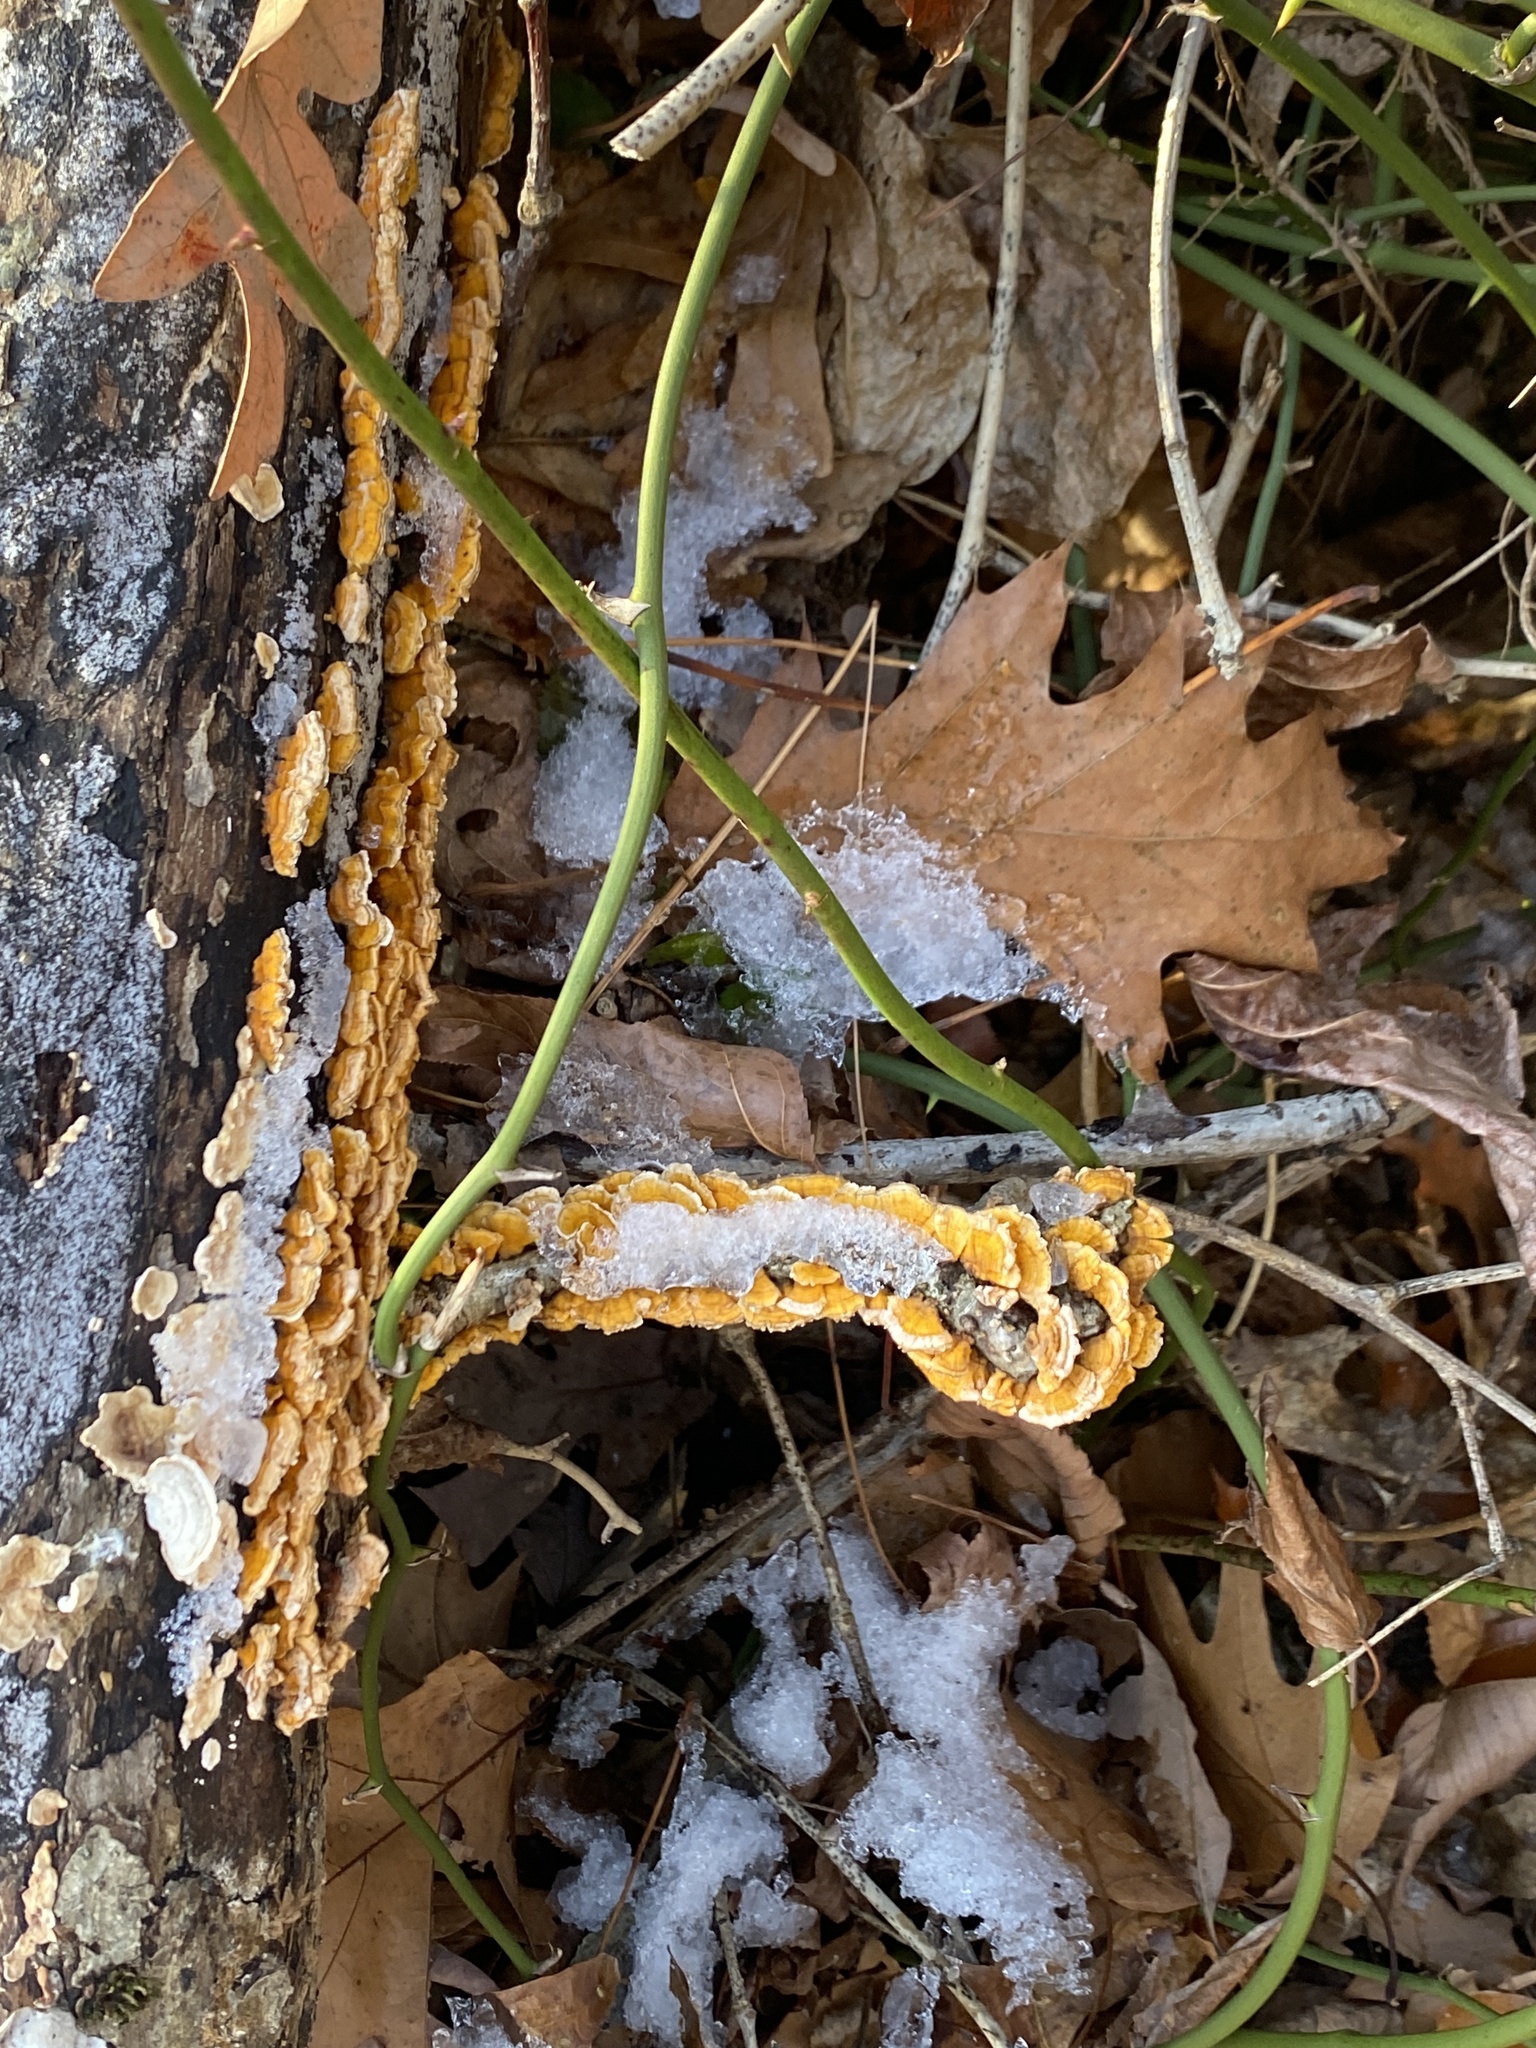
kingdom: Fungi
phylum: Basidiomycota
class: Agaricomycetes
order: Russulales
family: Stereaceae
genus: Stereum
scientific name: Stereum complicatum
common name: Crowded parchment
